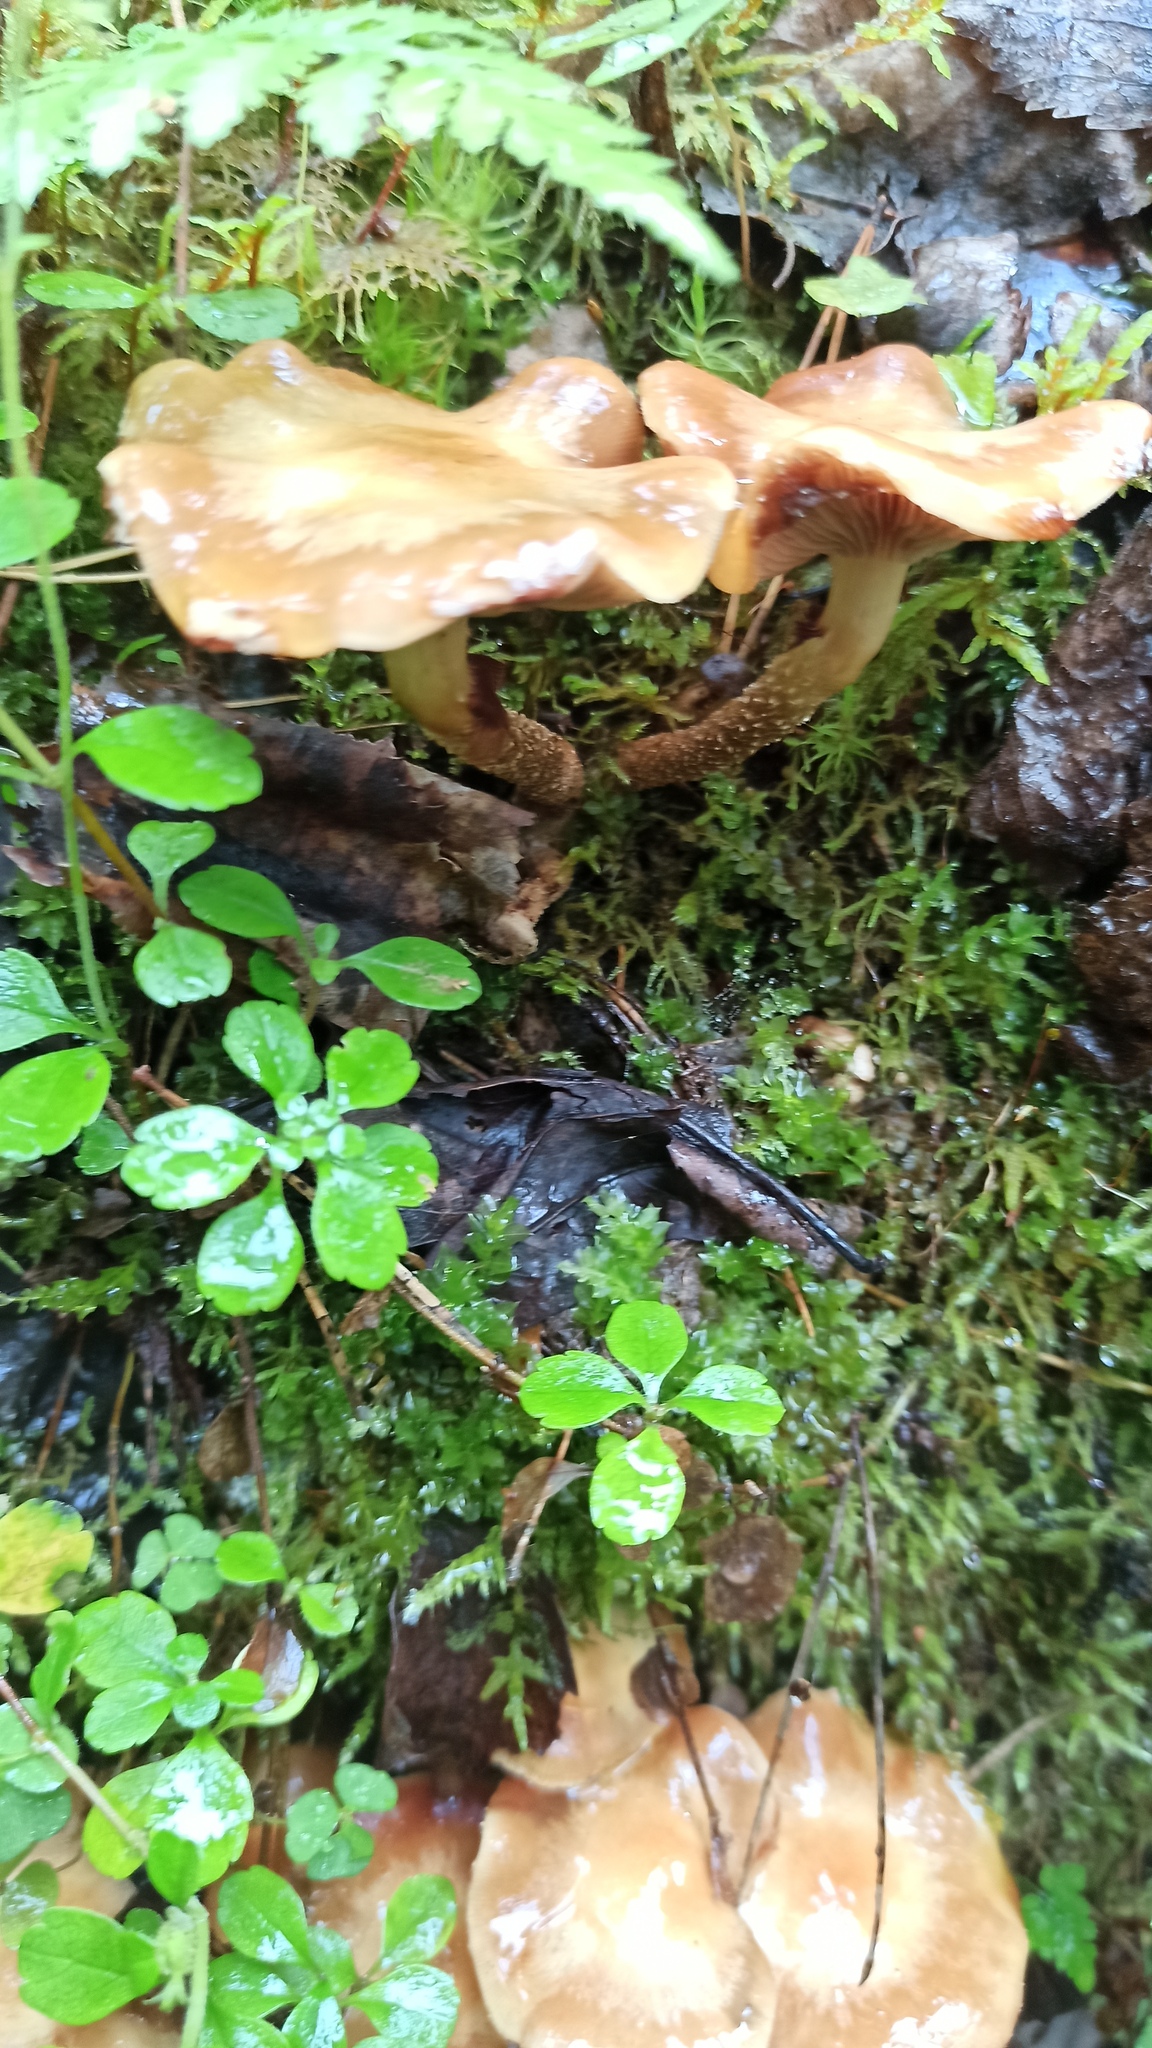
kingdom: Fungi
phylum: Basidiomycota
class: Agaricomycetes
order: Agaricales
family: Strophariaceae
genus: Kuehneromyces
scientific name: Kuehneromyces mutabilis
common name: Sheathed woodtuft
